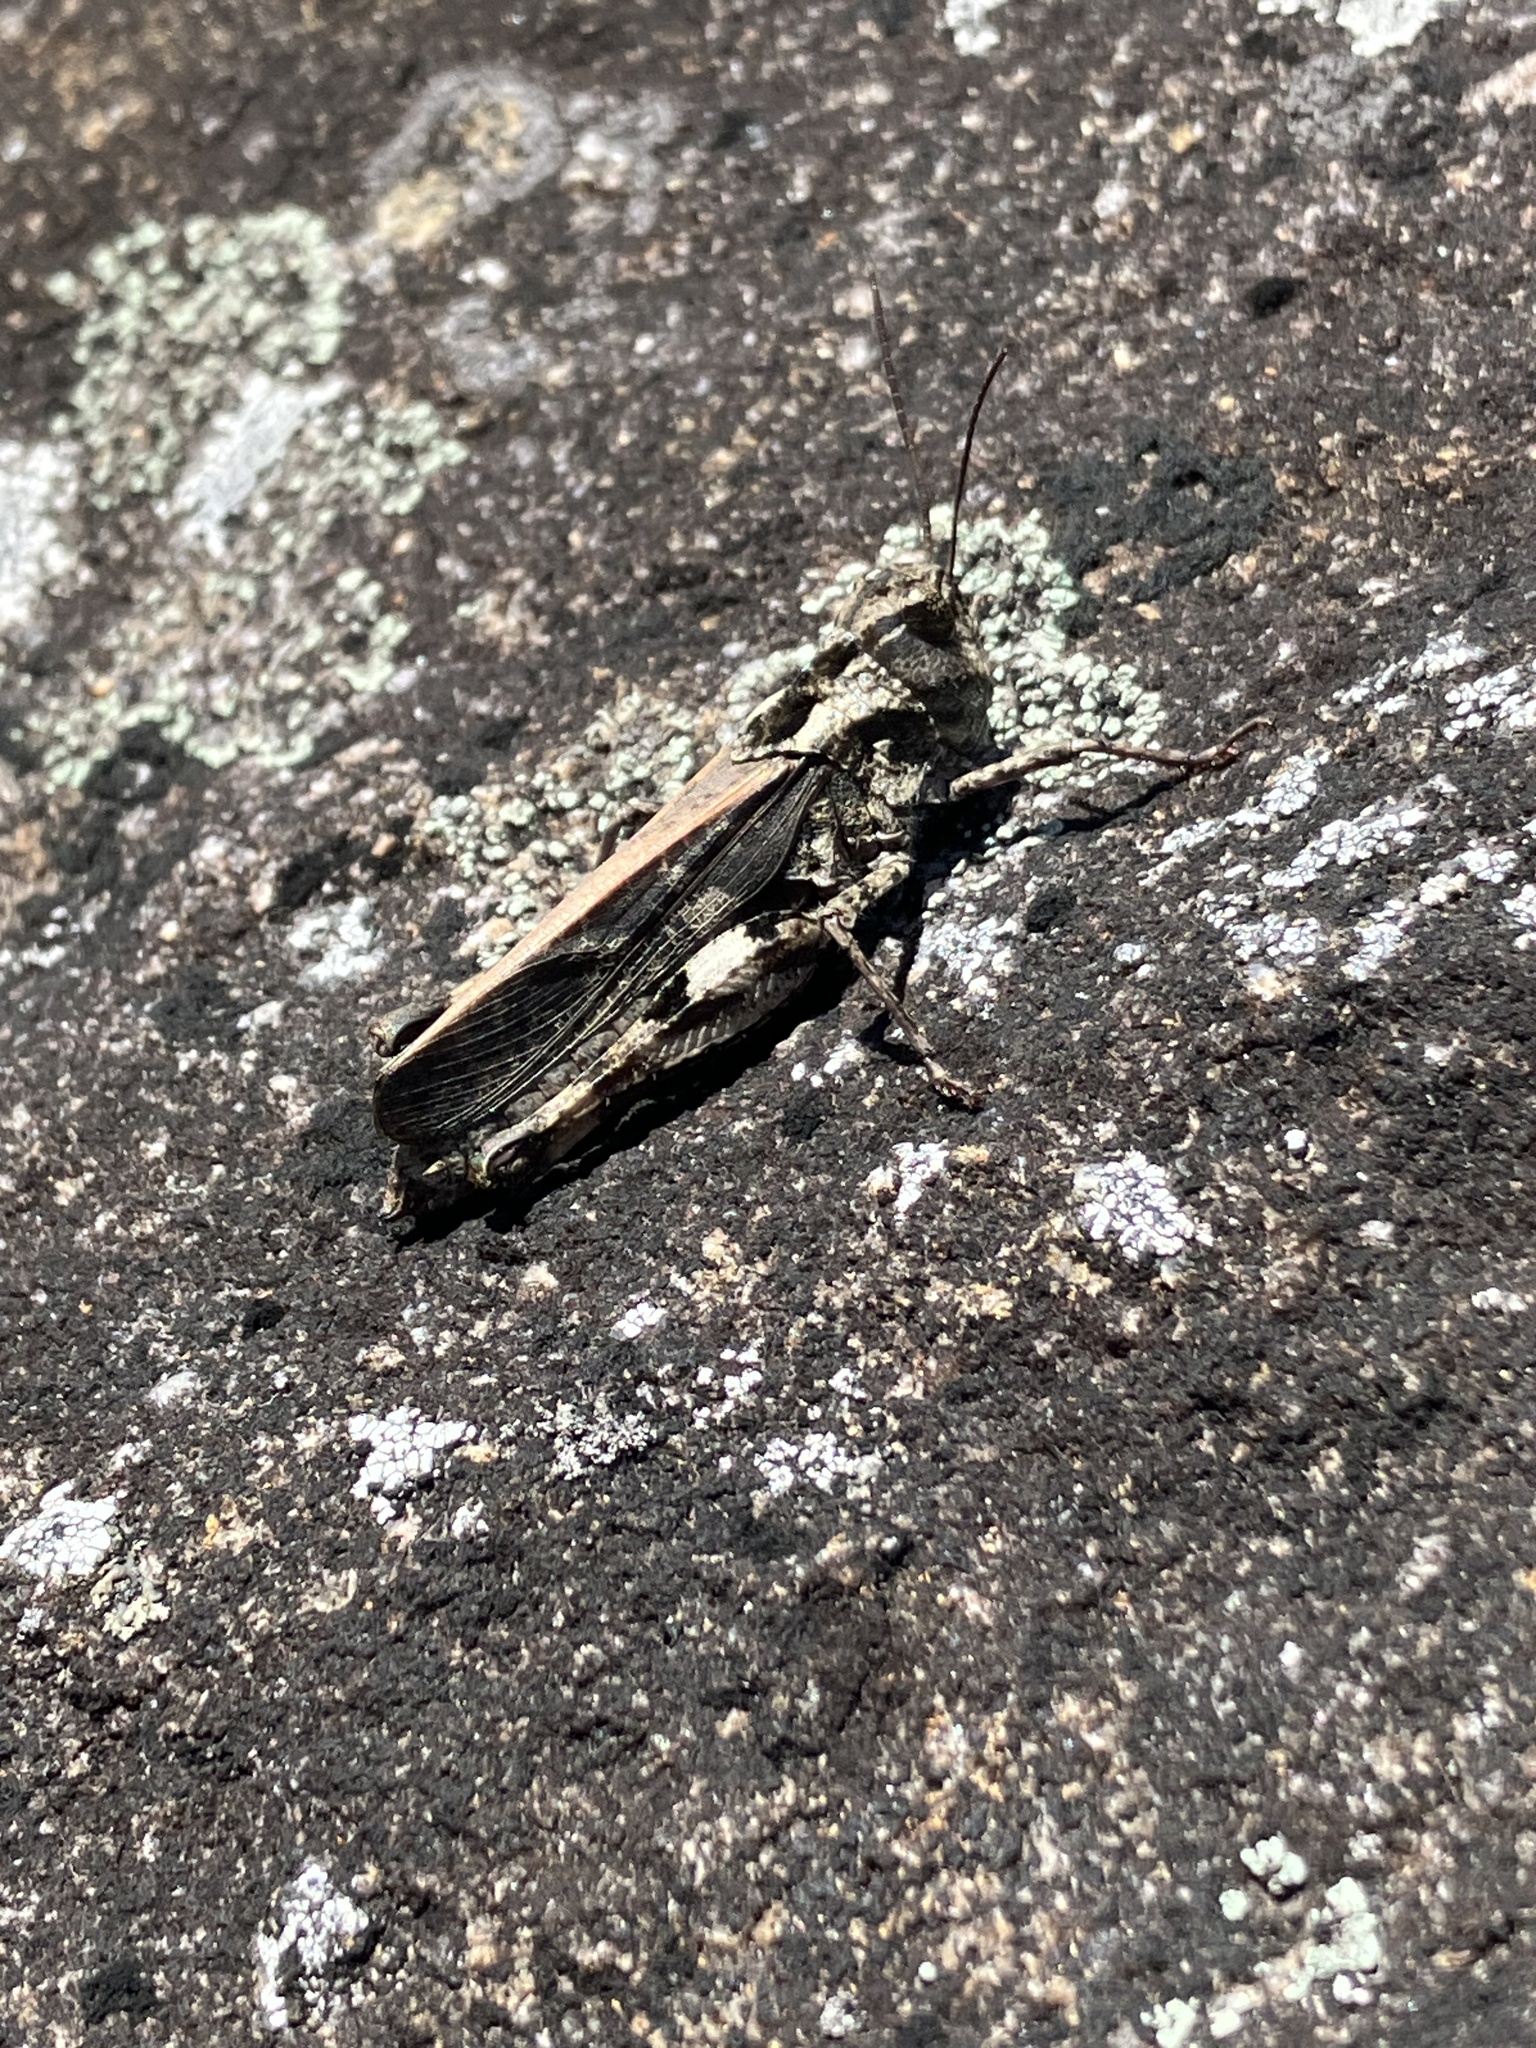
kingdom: Animalia
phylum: Arthropoda
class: Insecta
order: Orthoptera
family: Acrididae
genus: Oedaleus
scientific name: Oedaleus formosanus
